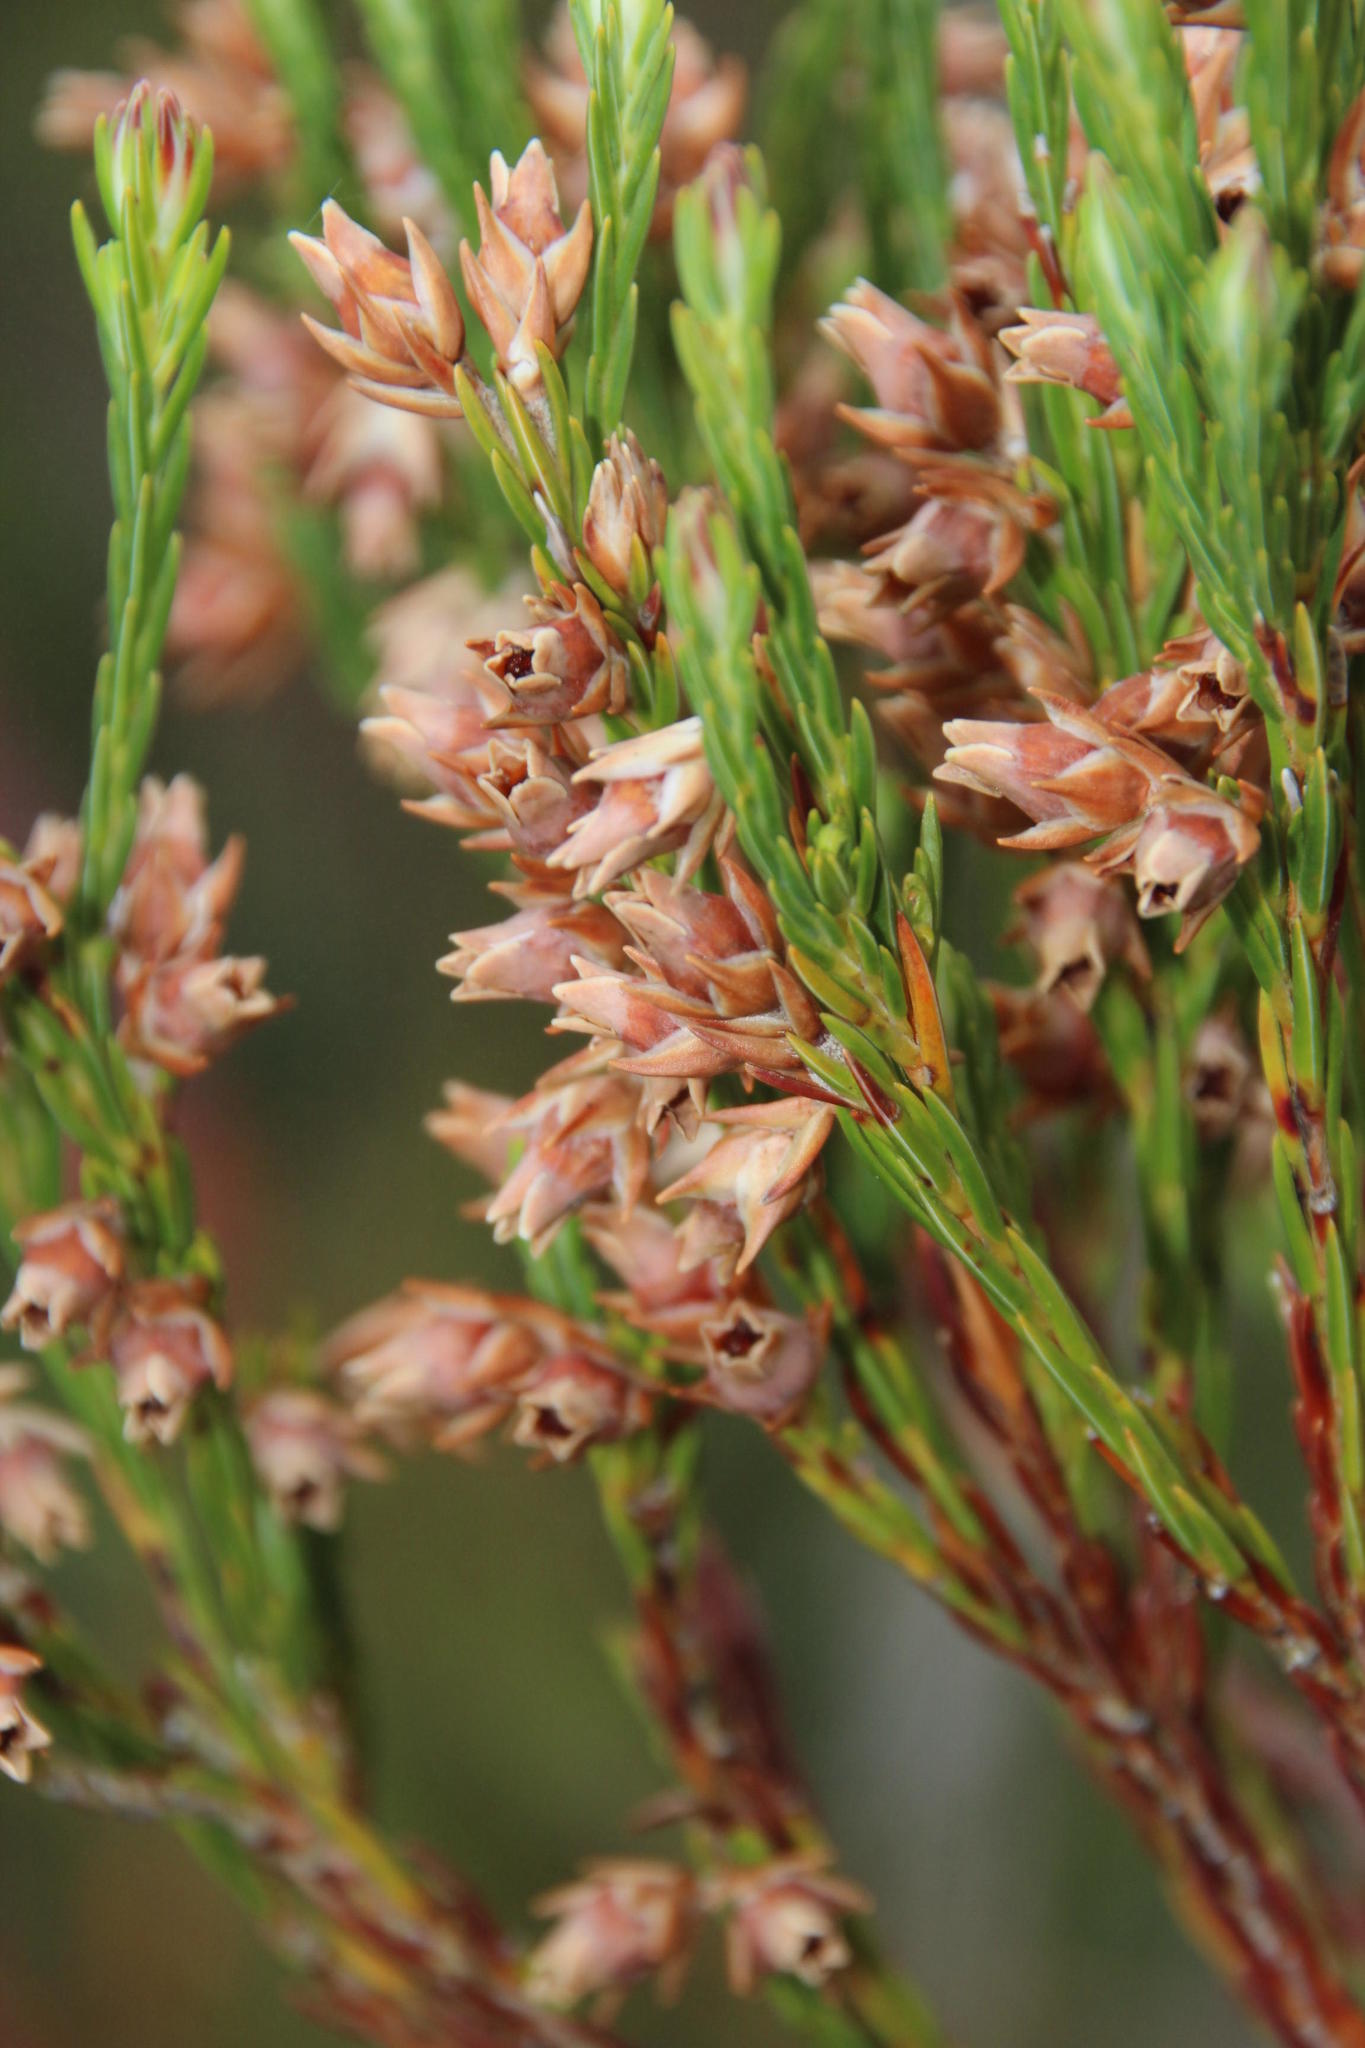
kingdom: Plantae
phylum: Tracheophyta
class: Magnoliopsida
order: Ericales
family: Ericaceae
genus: Erica
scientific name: Erica dianthifolia
